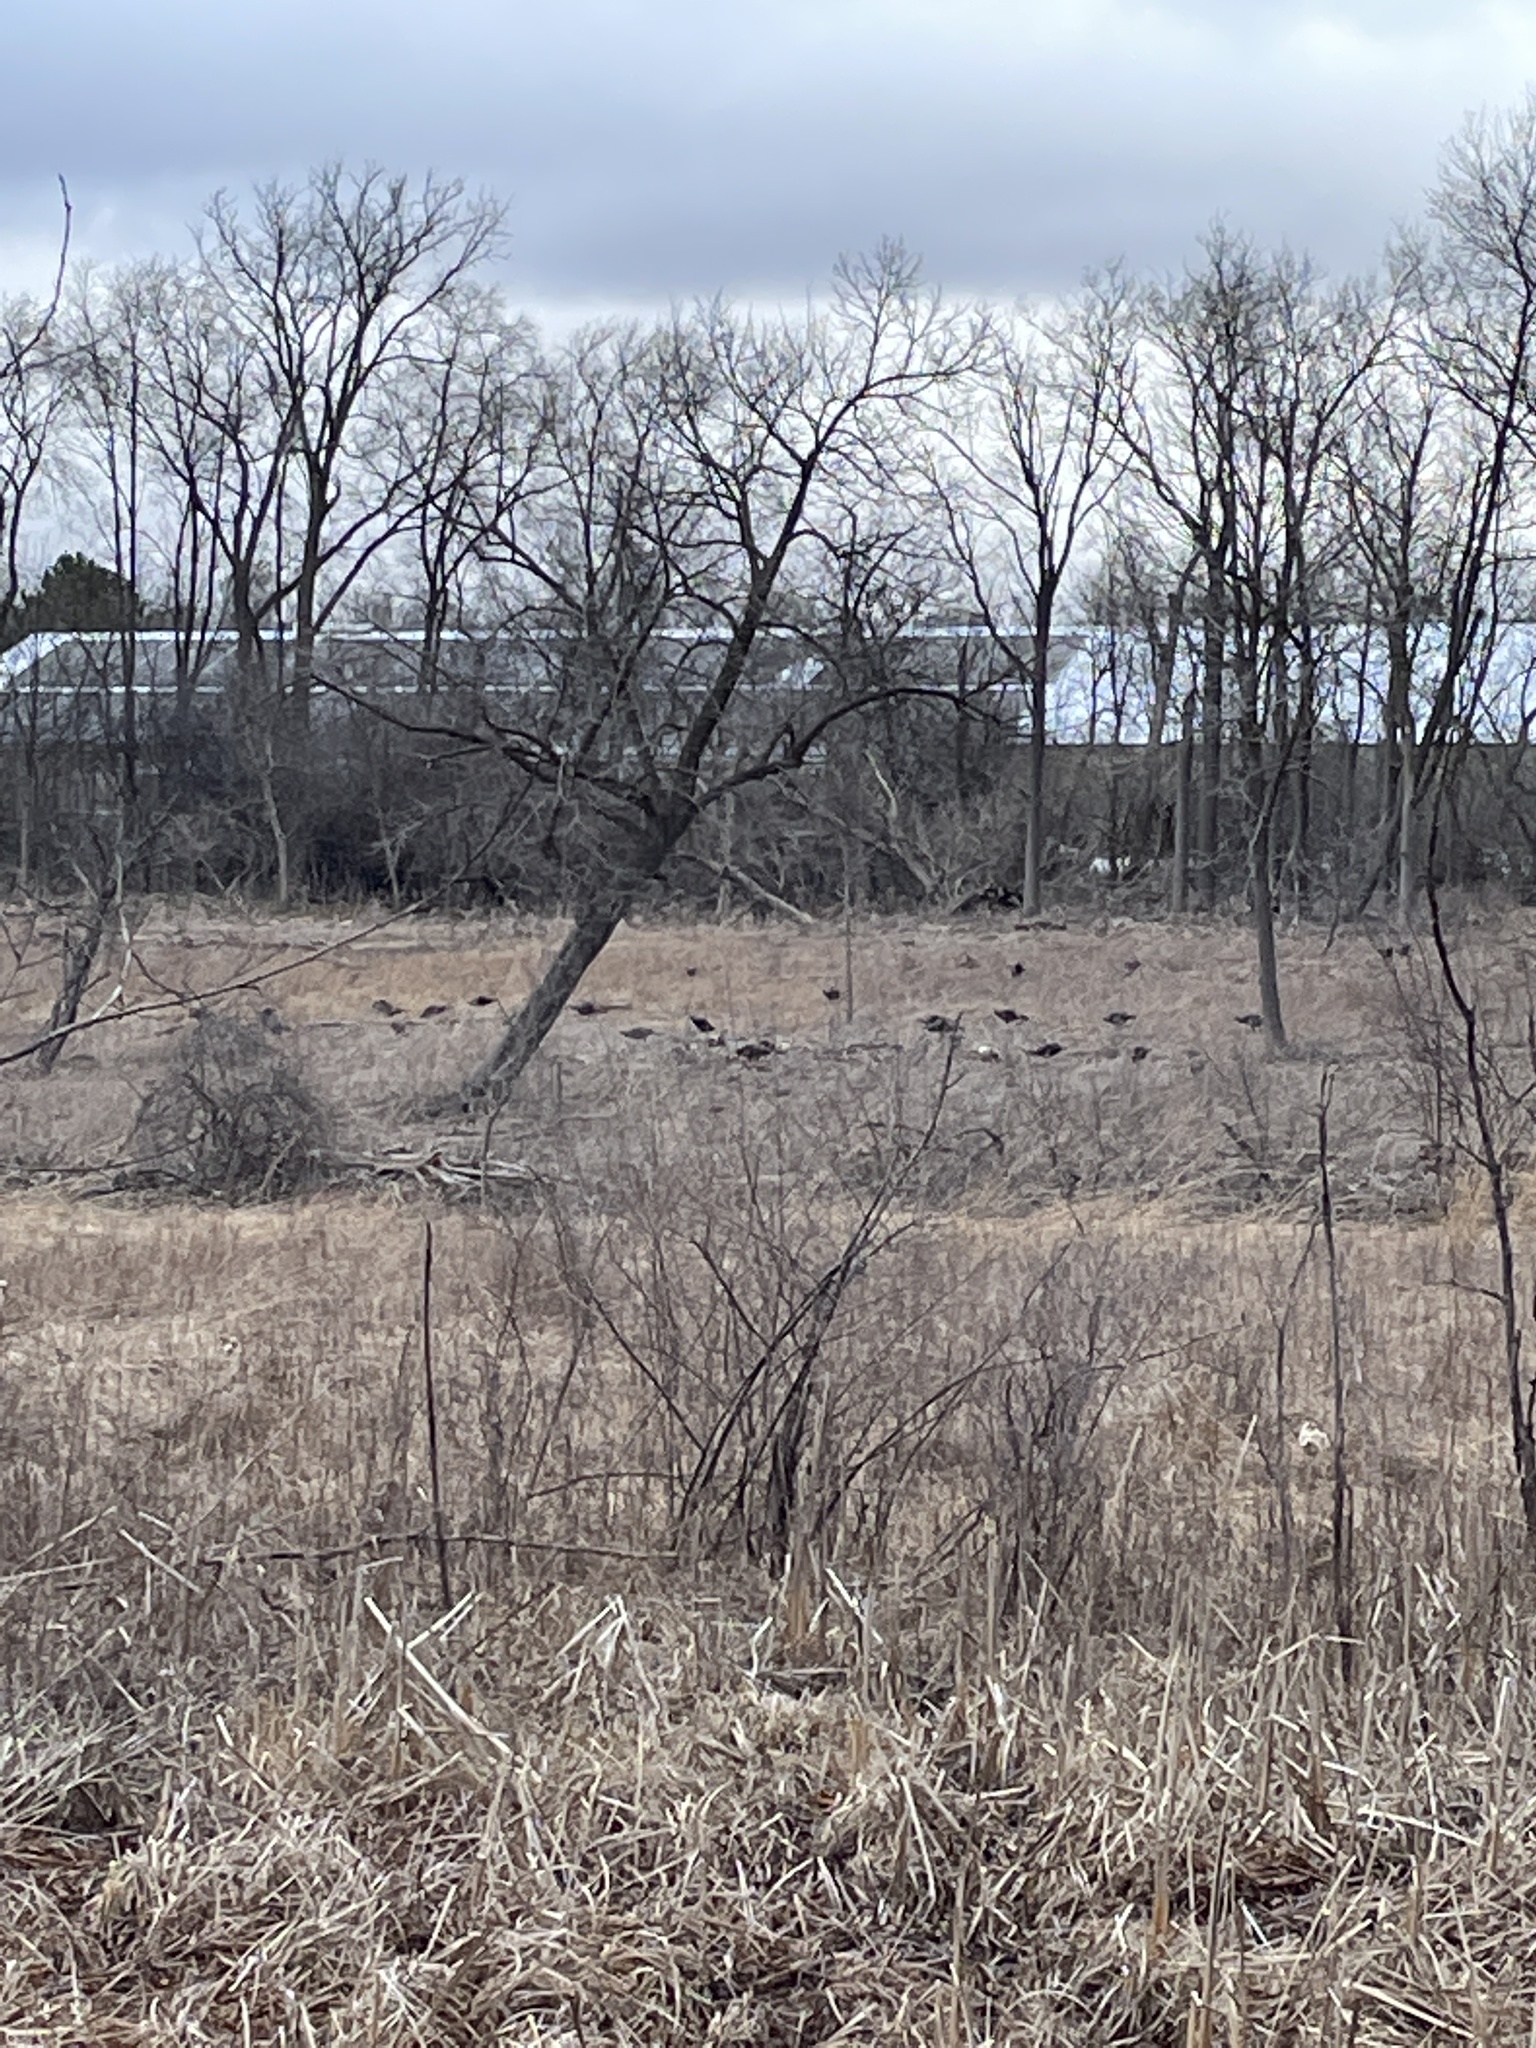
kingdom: Animalia
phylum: Chordata
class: Aves
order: Galliformes
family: Phasianidae
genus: Meleagris
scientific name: Meleagris gallopavo
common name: Wild turkey
